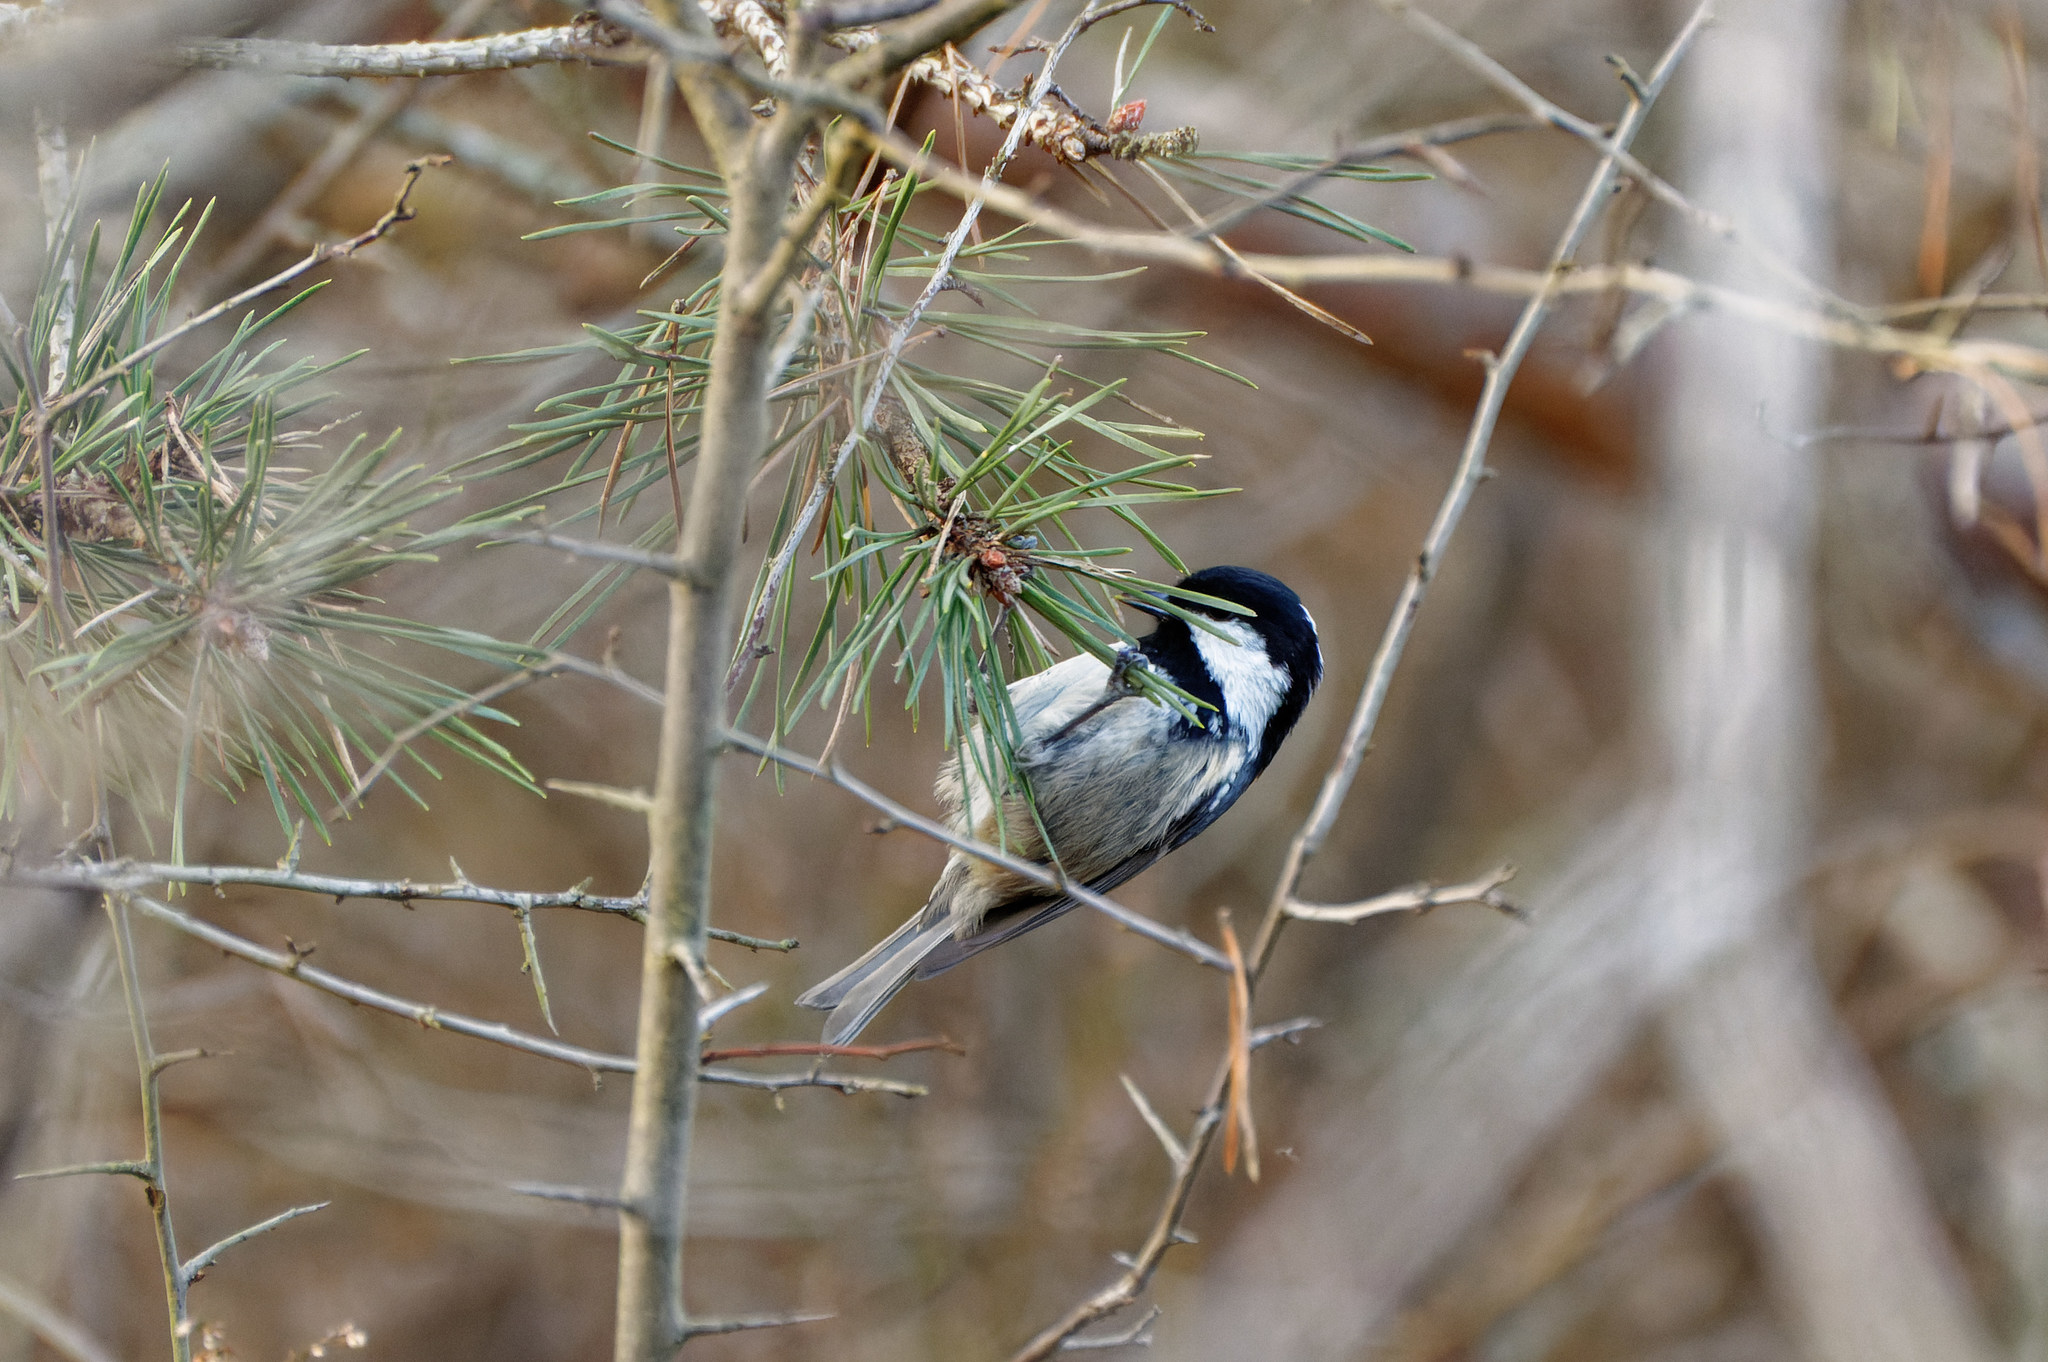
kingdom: Animalia
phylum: Chordata
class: Aves
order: Passeriformes
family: Paridae
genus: Periparus
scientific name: Periparus ater
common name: Coal tit
